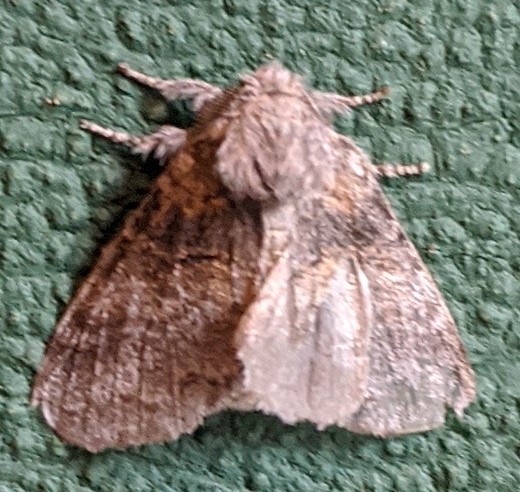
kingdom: Animalia
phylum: Arthropoda
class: Insecta
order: Lepidoptera
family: Notodontidae
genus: Gluphisia
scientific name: Gluphisia septentrionis
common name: Common gluphisia
